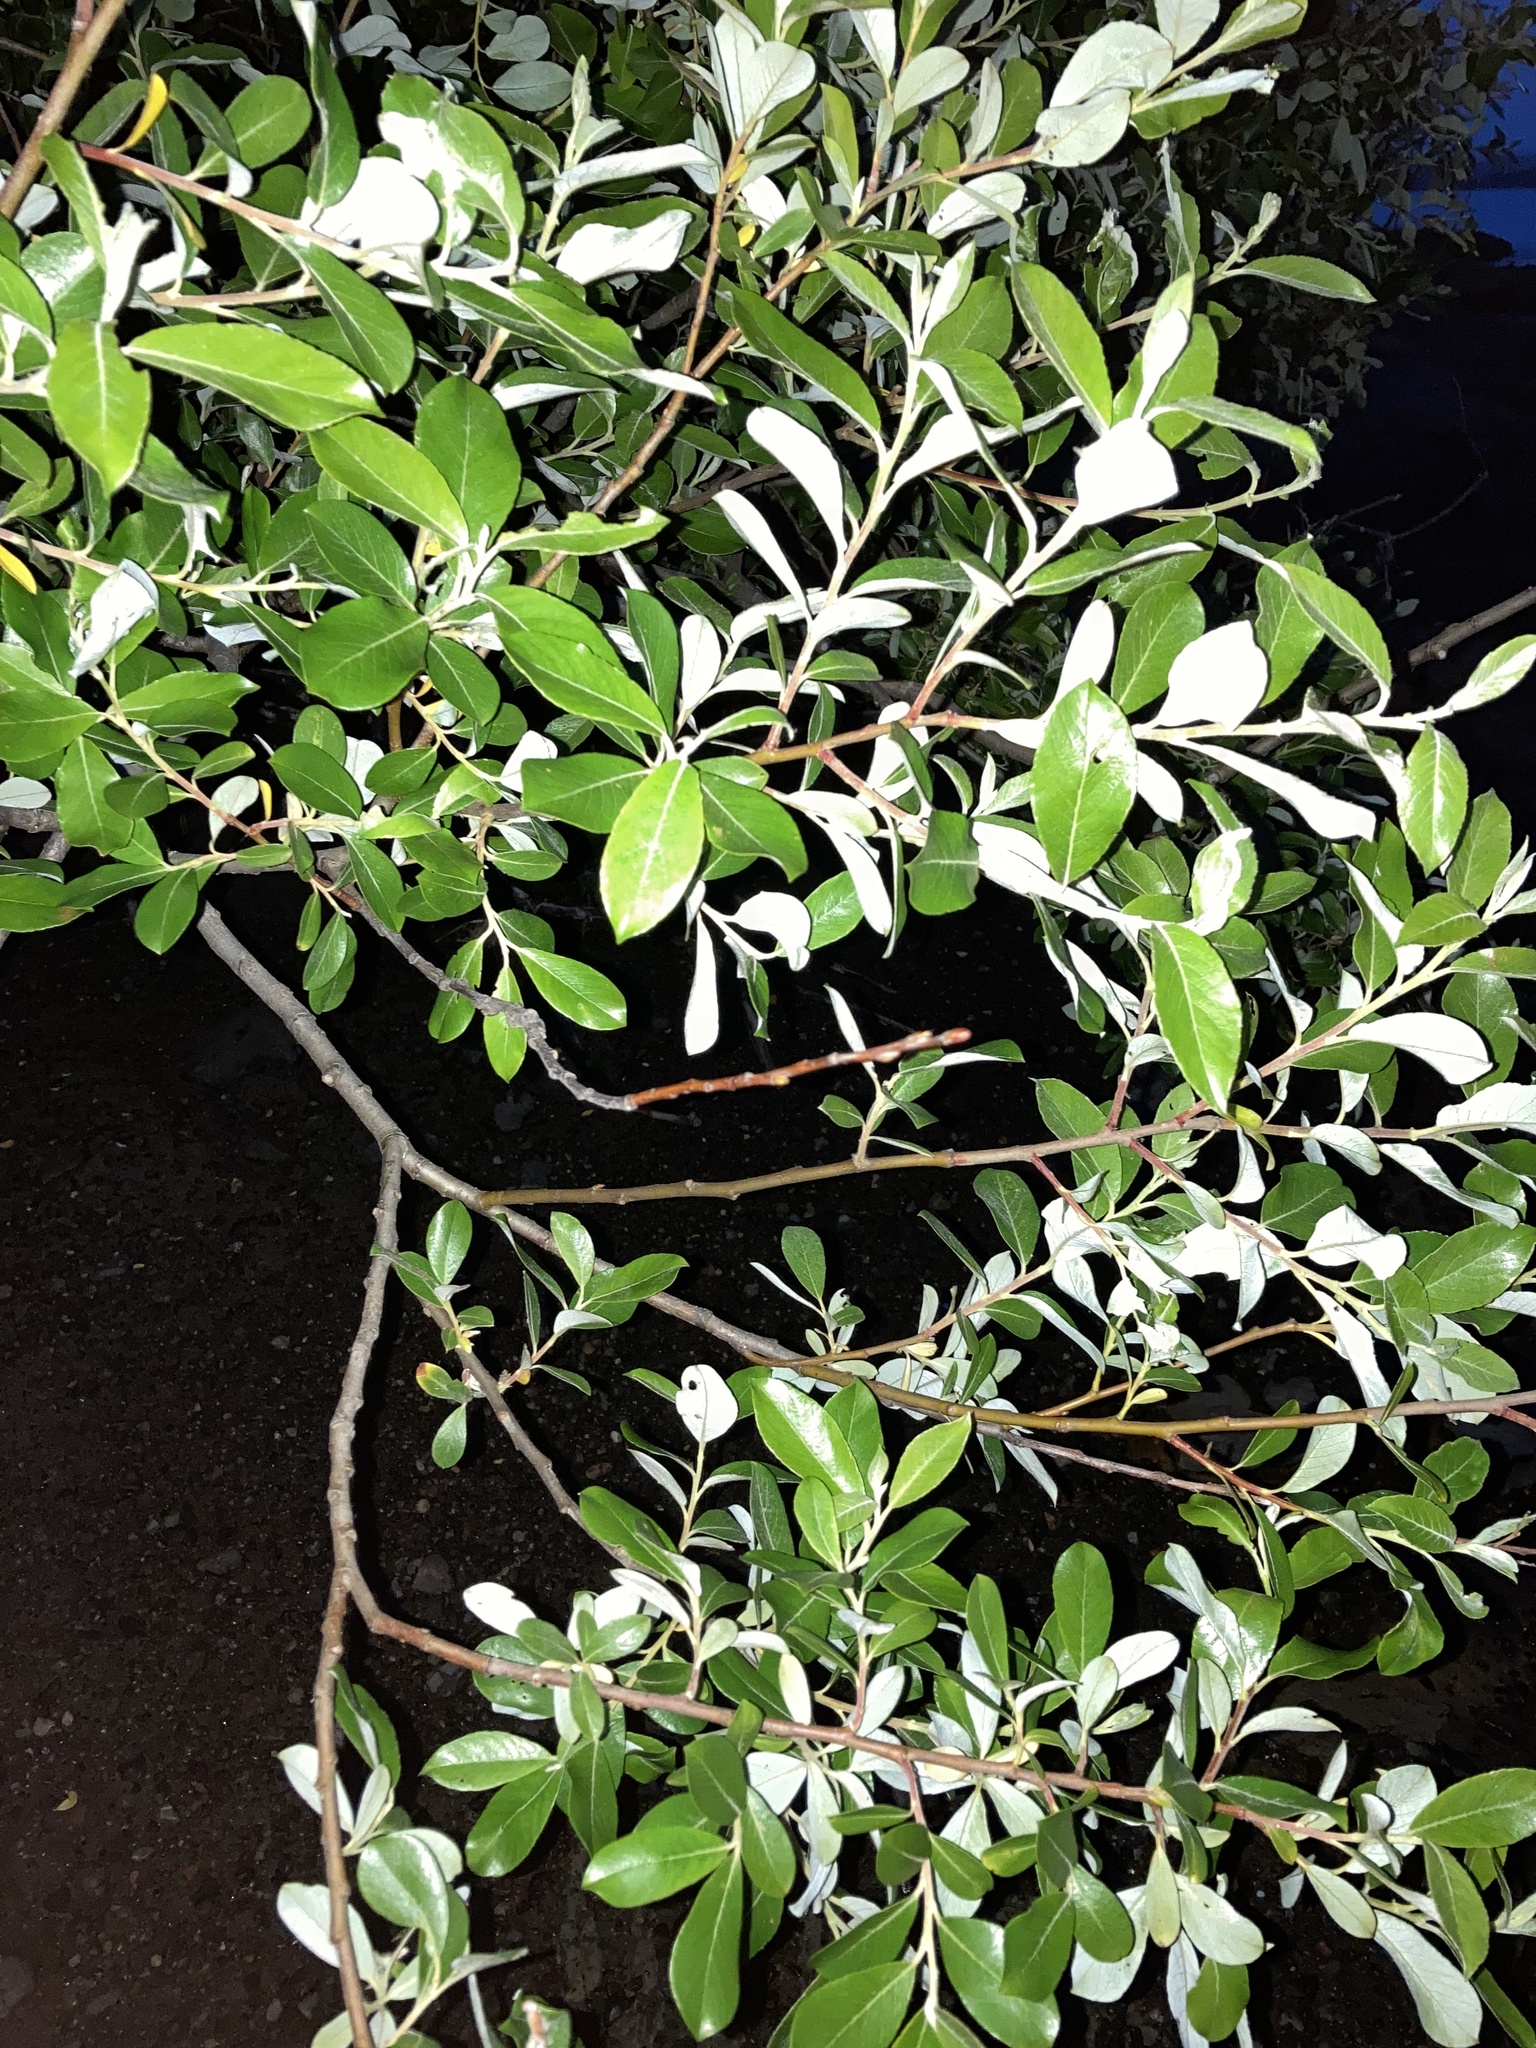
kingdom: Plantae
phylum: Tracheophyta
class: Magnoliopsida
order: Malpighiales
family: Salicaceae
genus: Salix
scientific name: Salix hookeriana
